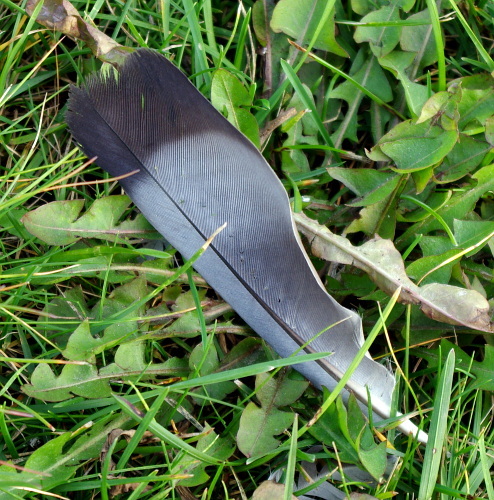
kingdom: Animalia
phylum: Chordata
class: Aves
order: Columbiformes
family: Columbidae
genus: Columba
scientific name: Columba livia
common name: Rock pigeon
